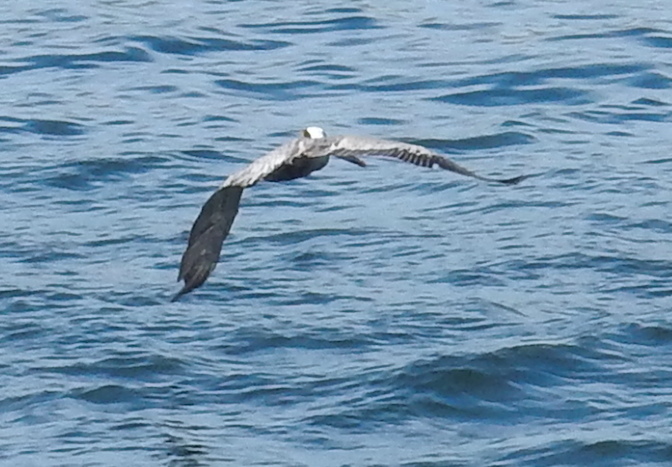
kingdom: Animalia
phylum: Chordata
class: Aves
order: Pelecaniformes
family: Pelecanidae
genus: Pelecanus
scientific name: Pelecanus occidentalis
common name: Brown pelican
